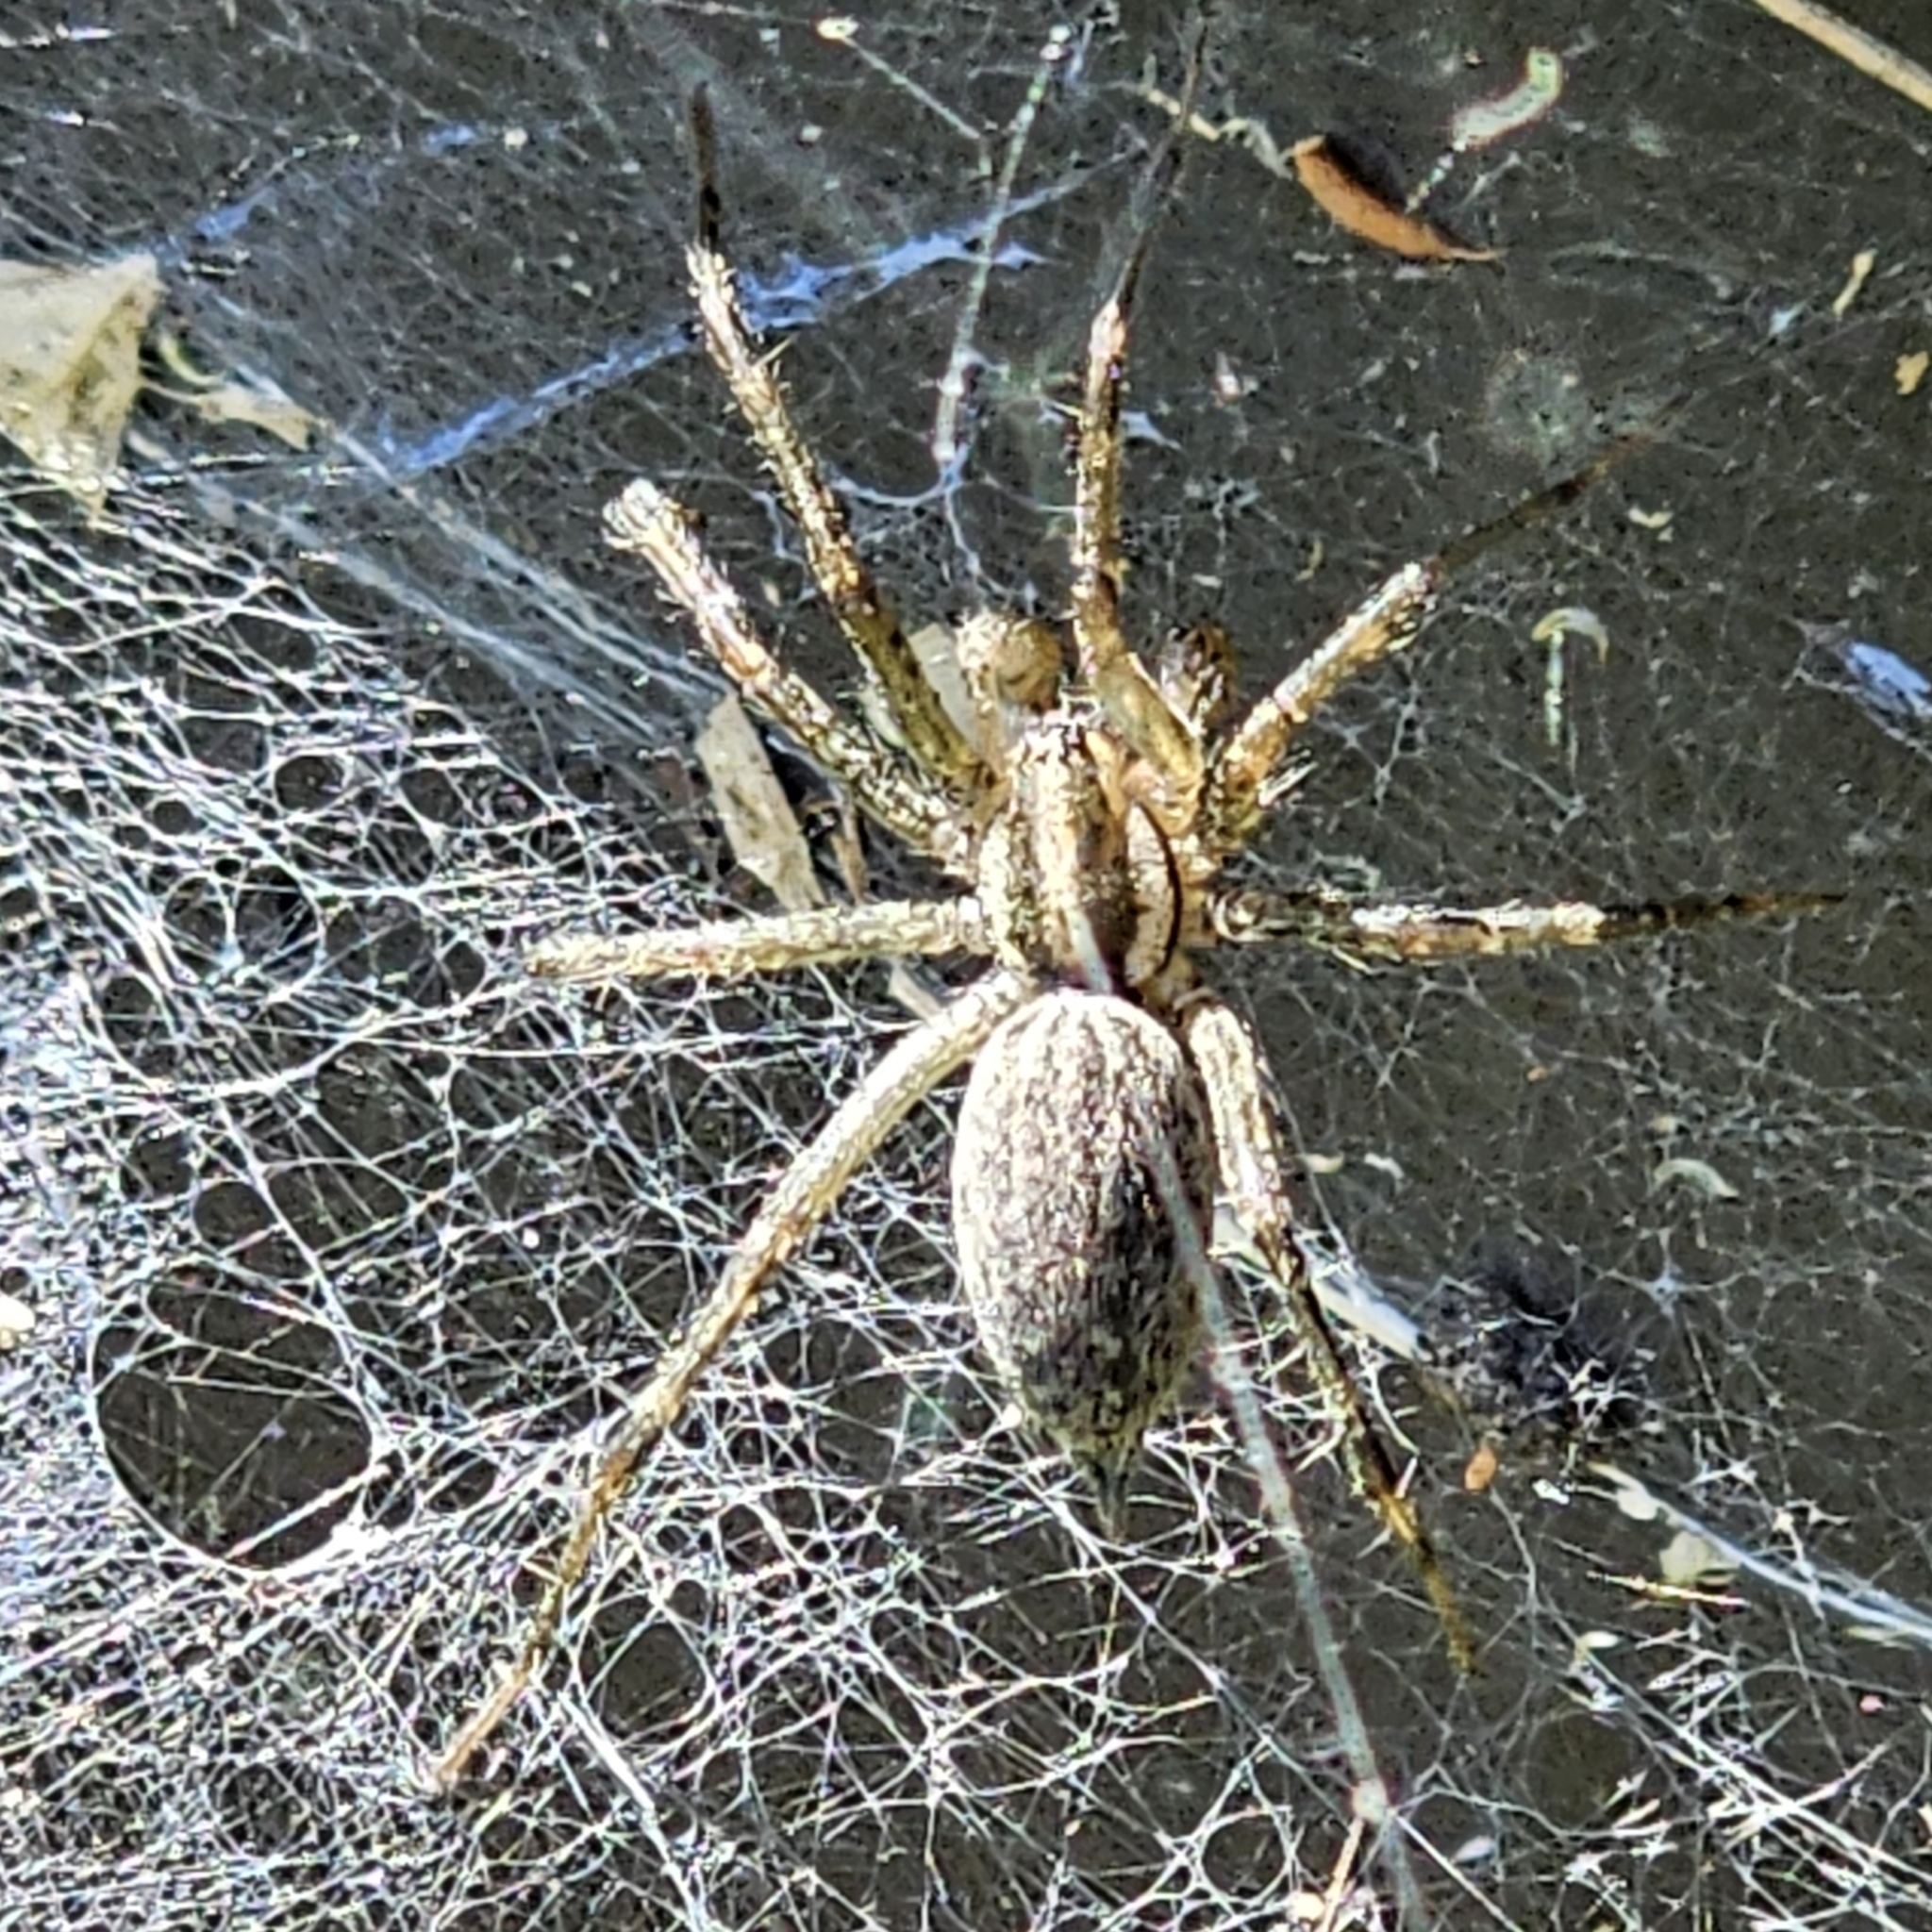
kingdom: Animalia
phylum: Arthropoda
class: Arachnida
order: Araneae
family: Agelenidae
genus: Agelenopsis
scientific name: Agelenopsis
